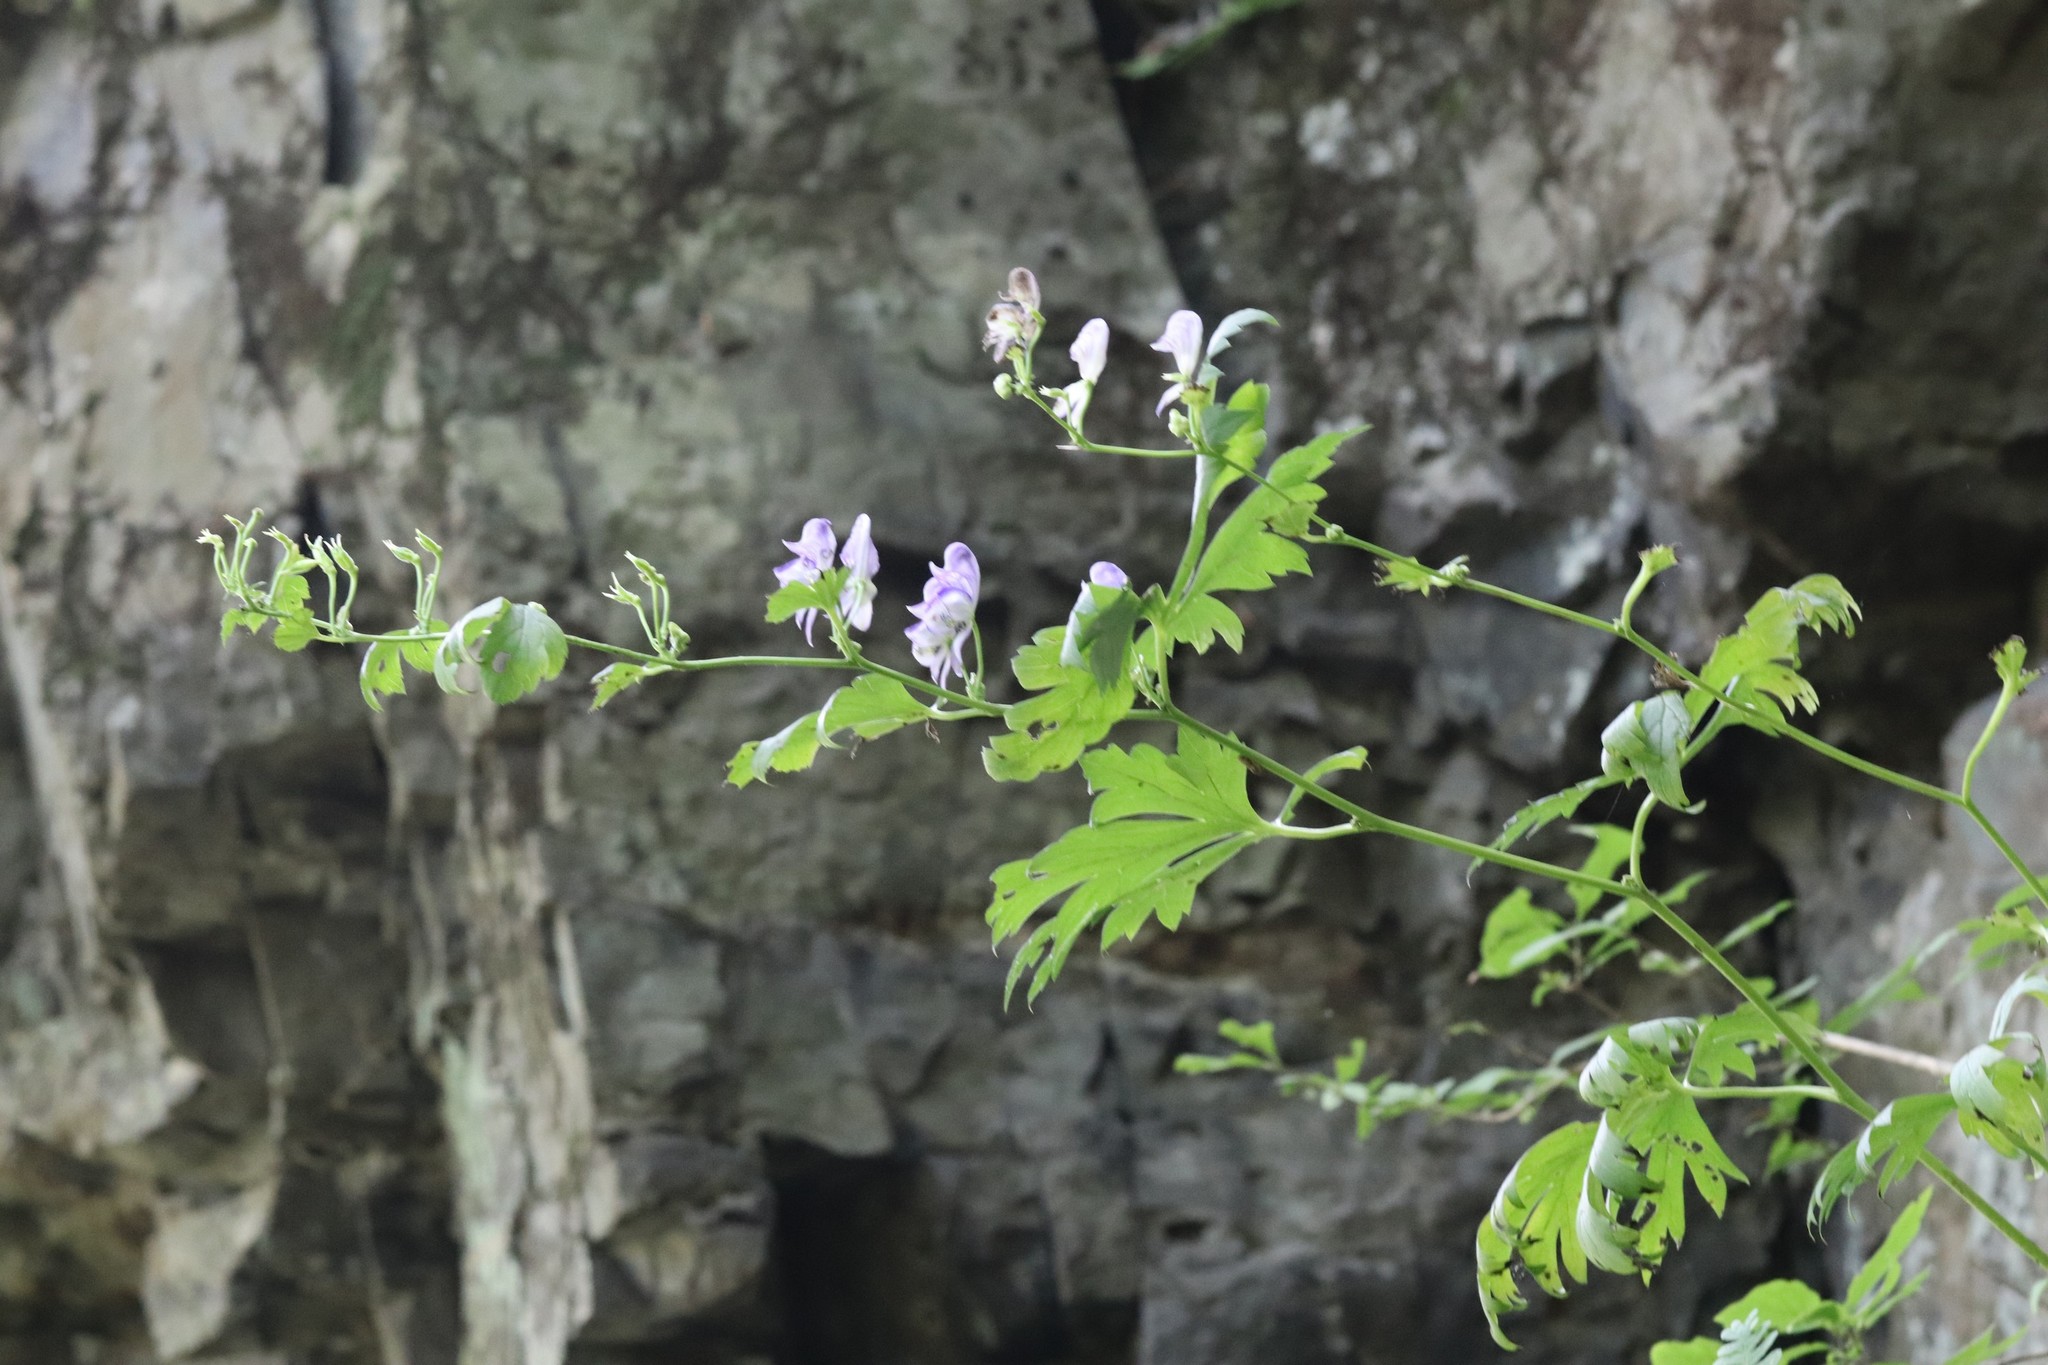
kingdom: Plantae
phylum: Tracheophyta
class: Magnoliopsida
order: Ranunculales
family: Ranunculaceae
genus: Aconitum
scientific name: Aconitum sczukinii
